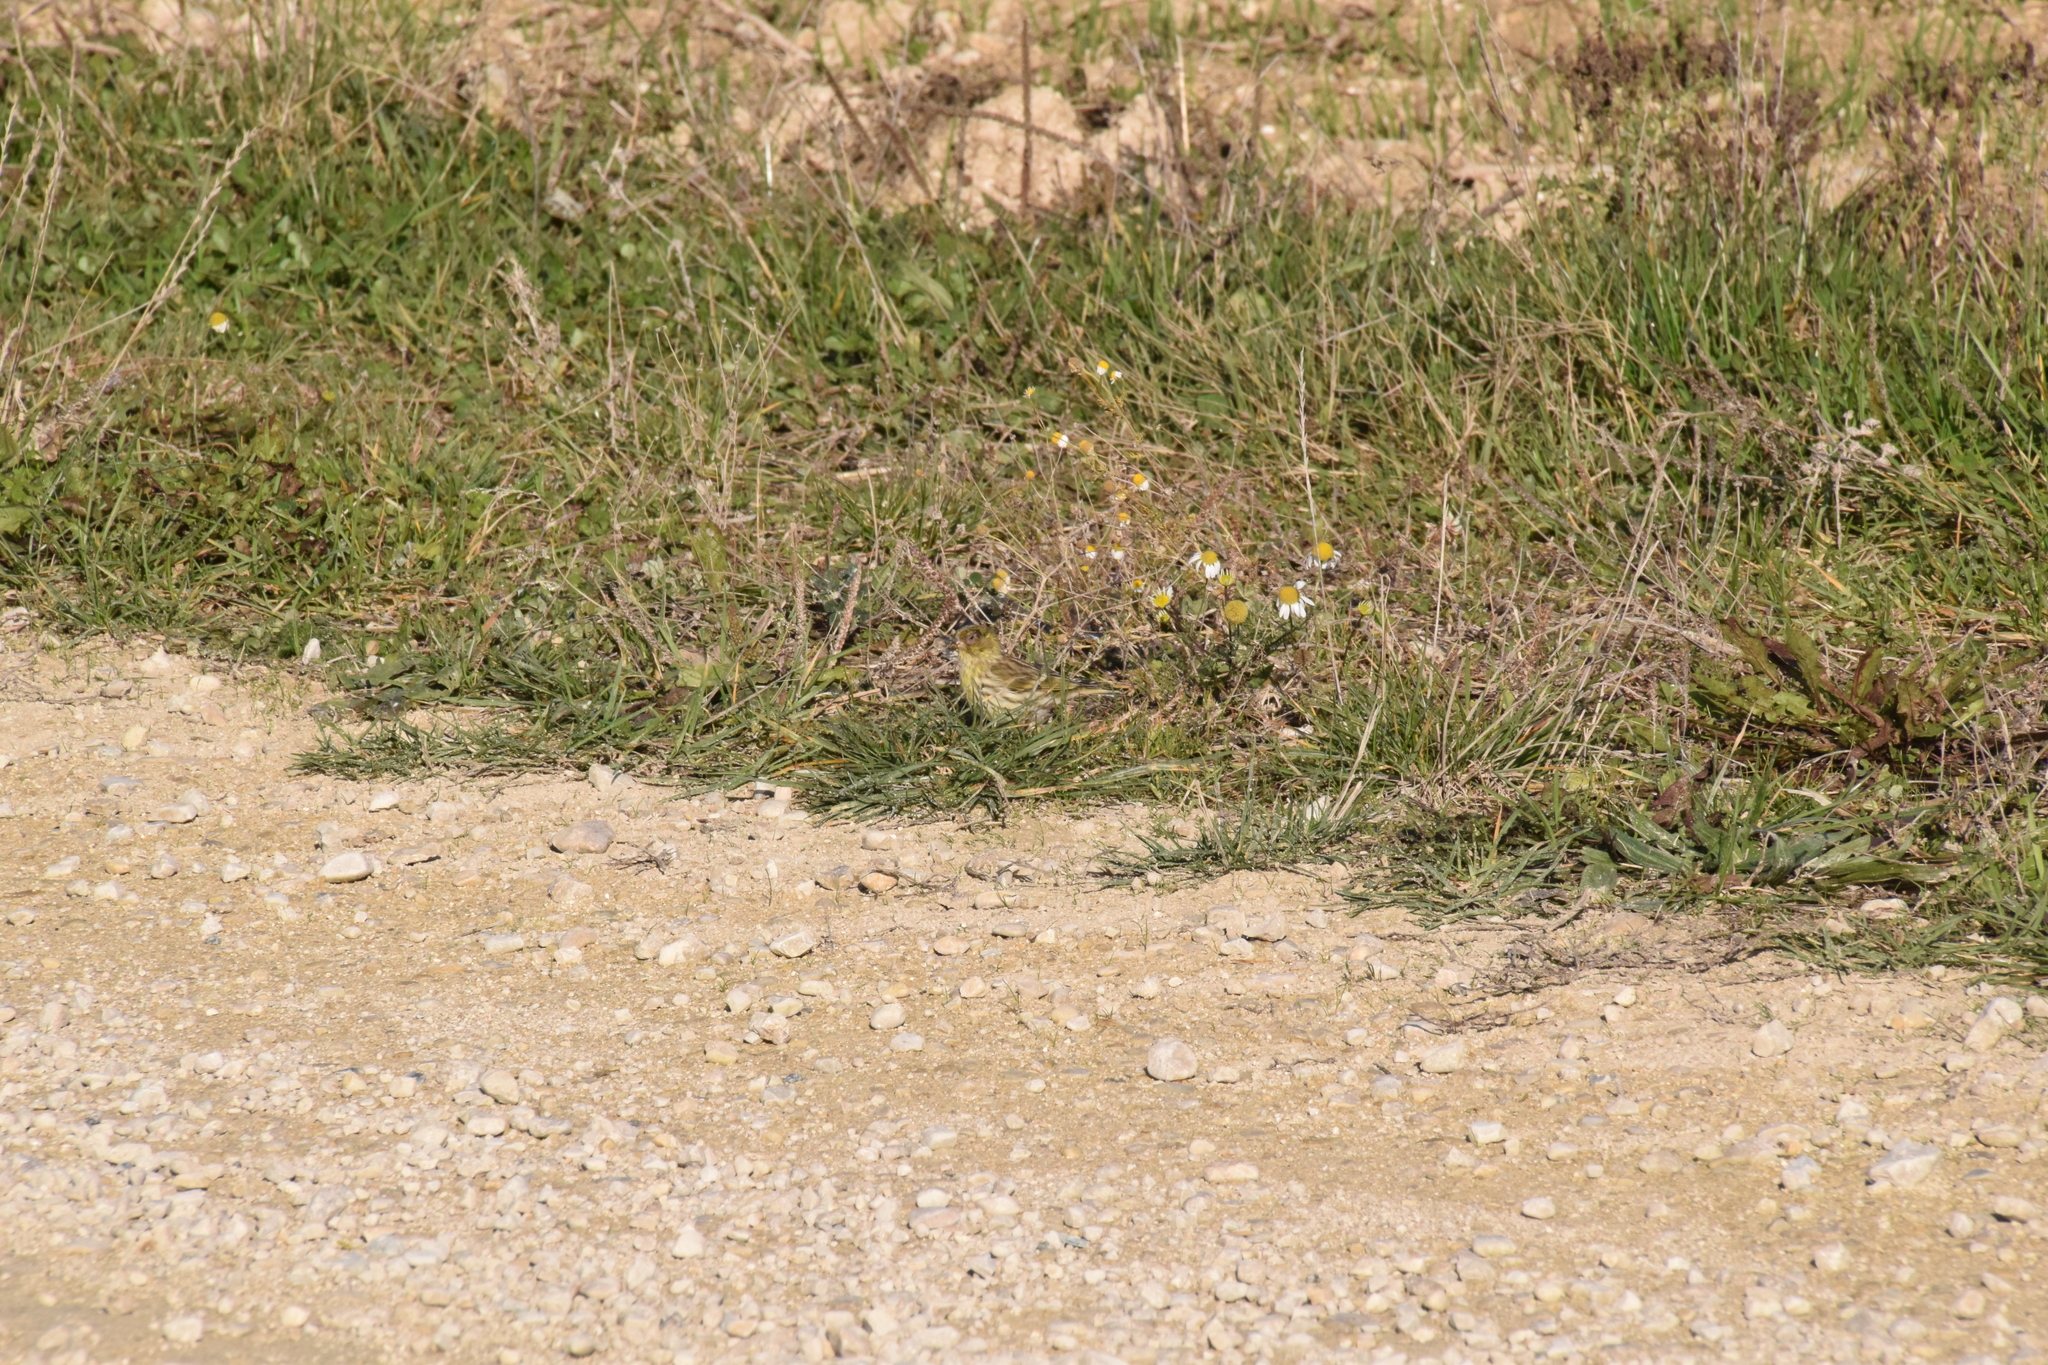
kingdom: Animalia
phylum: Chordata
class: Aves
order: Passeriformes
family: Fringillidae
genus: Serinus
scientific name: Serinus serinus
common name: European serin
